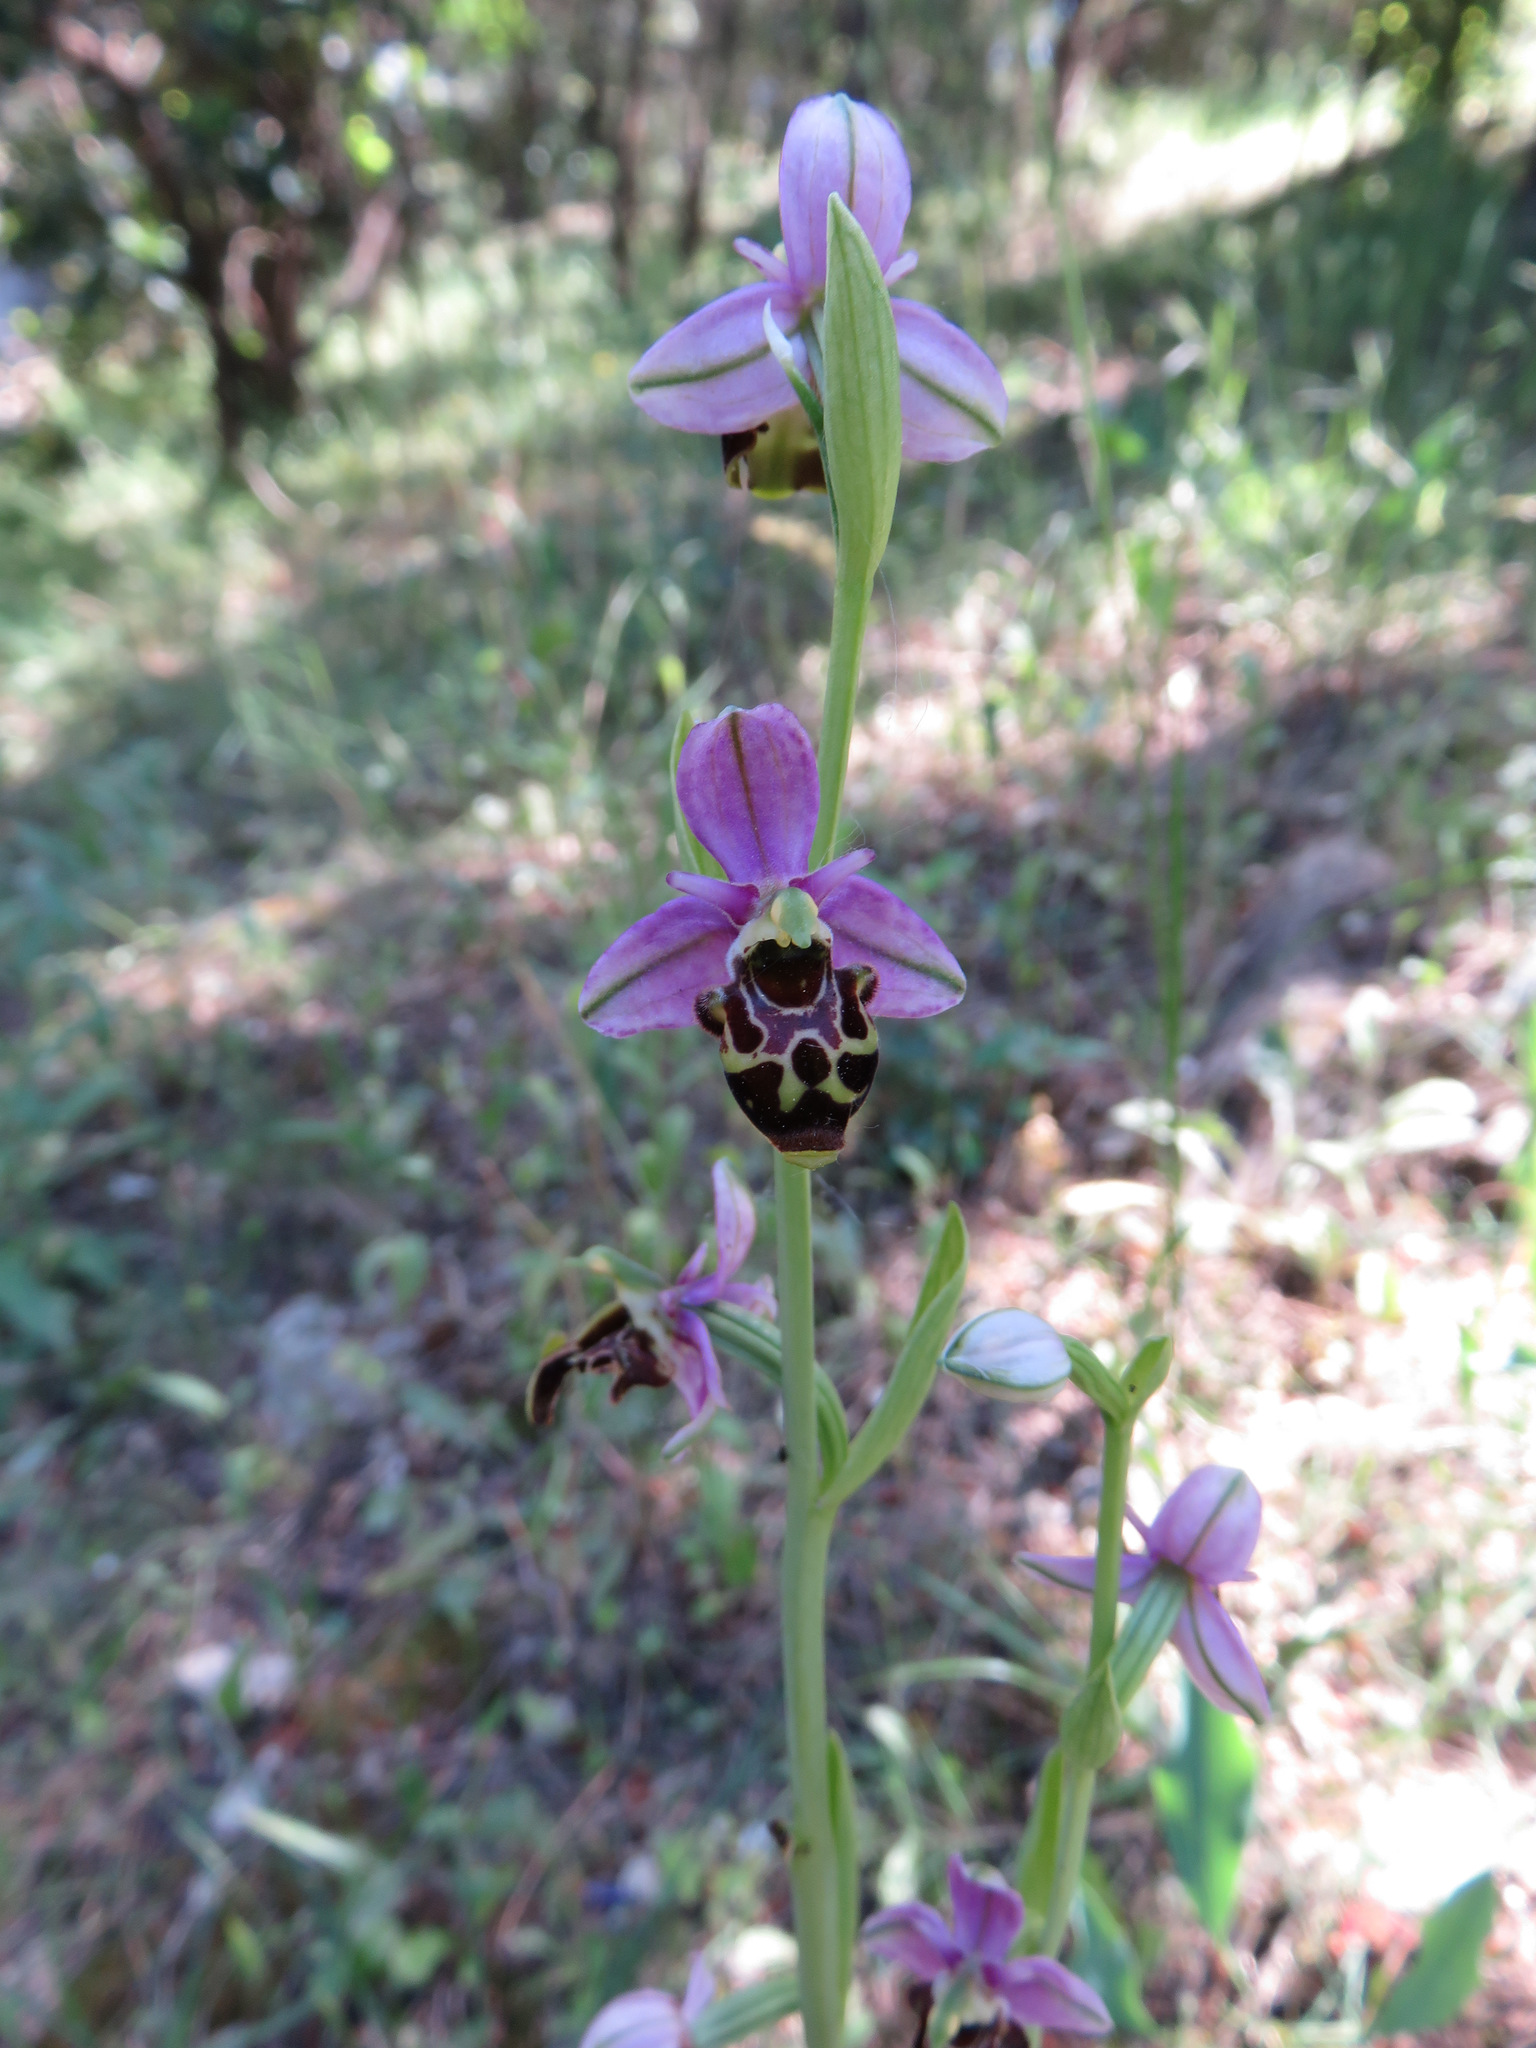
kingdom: Plantae
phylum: Tracheophyta
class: Liliopsida
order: Asparagales
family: Orchidaceae
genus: Ophrys
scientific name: Ophrys scolopax
